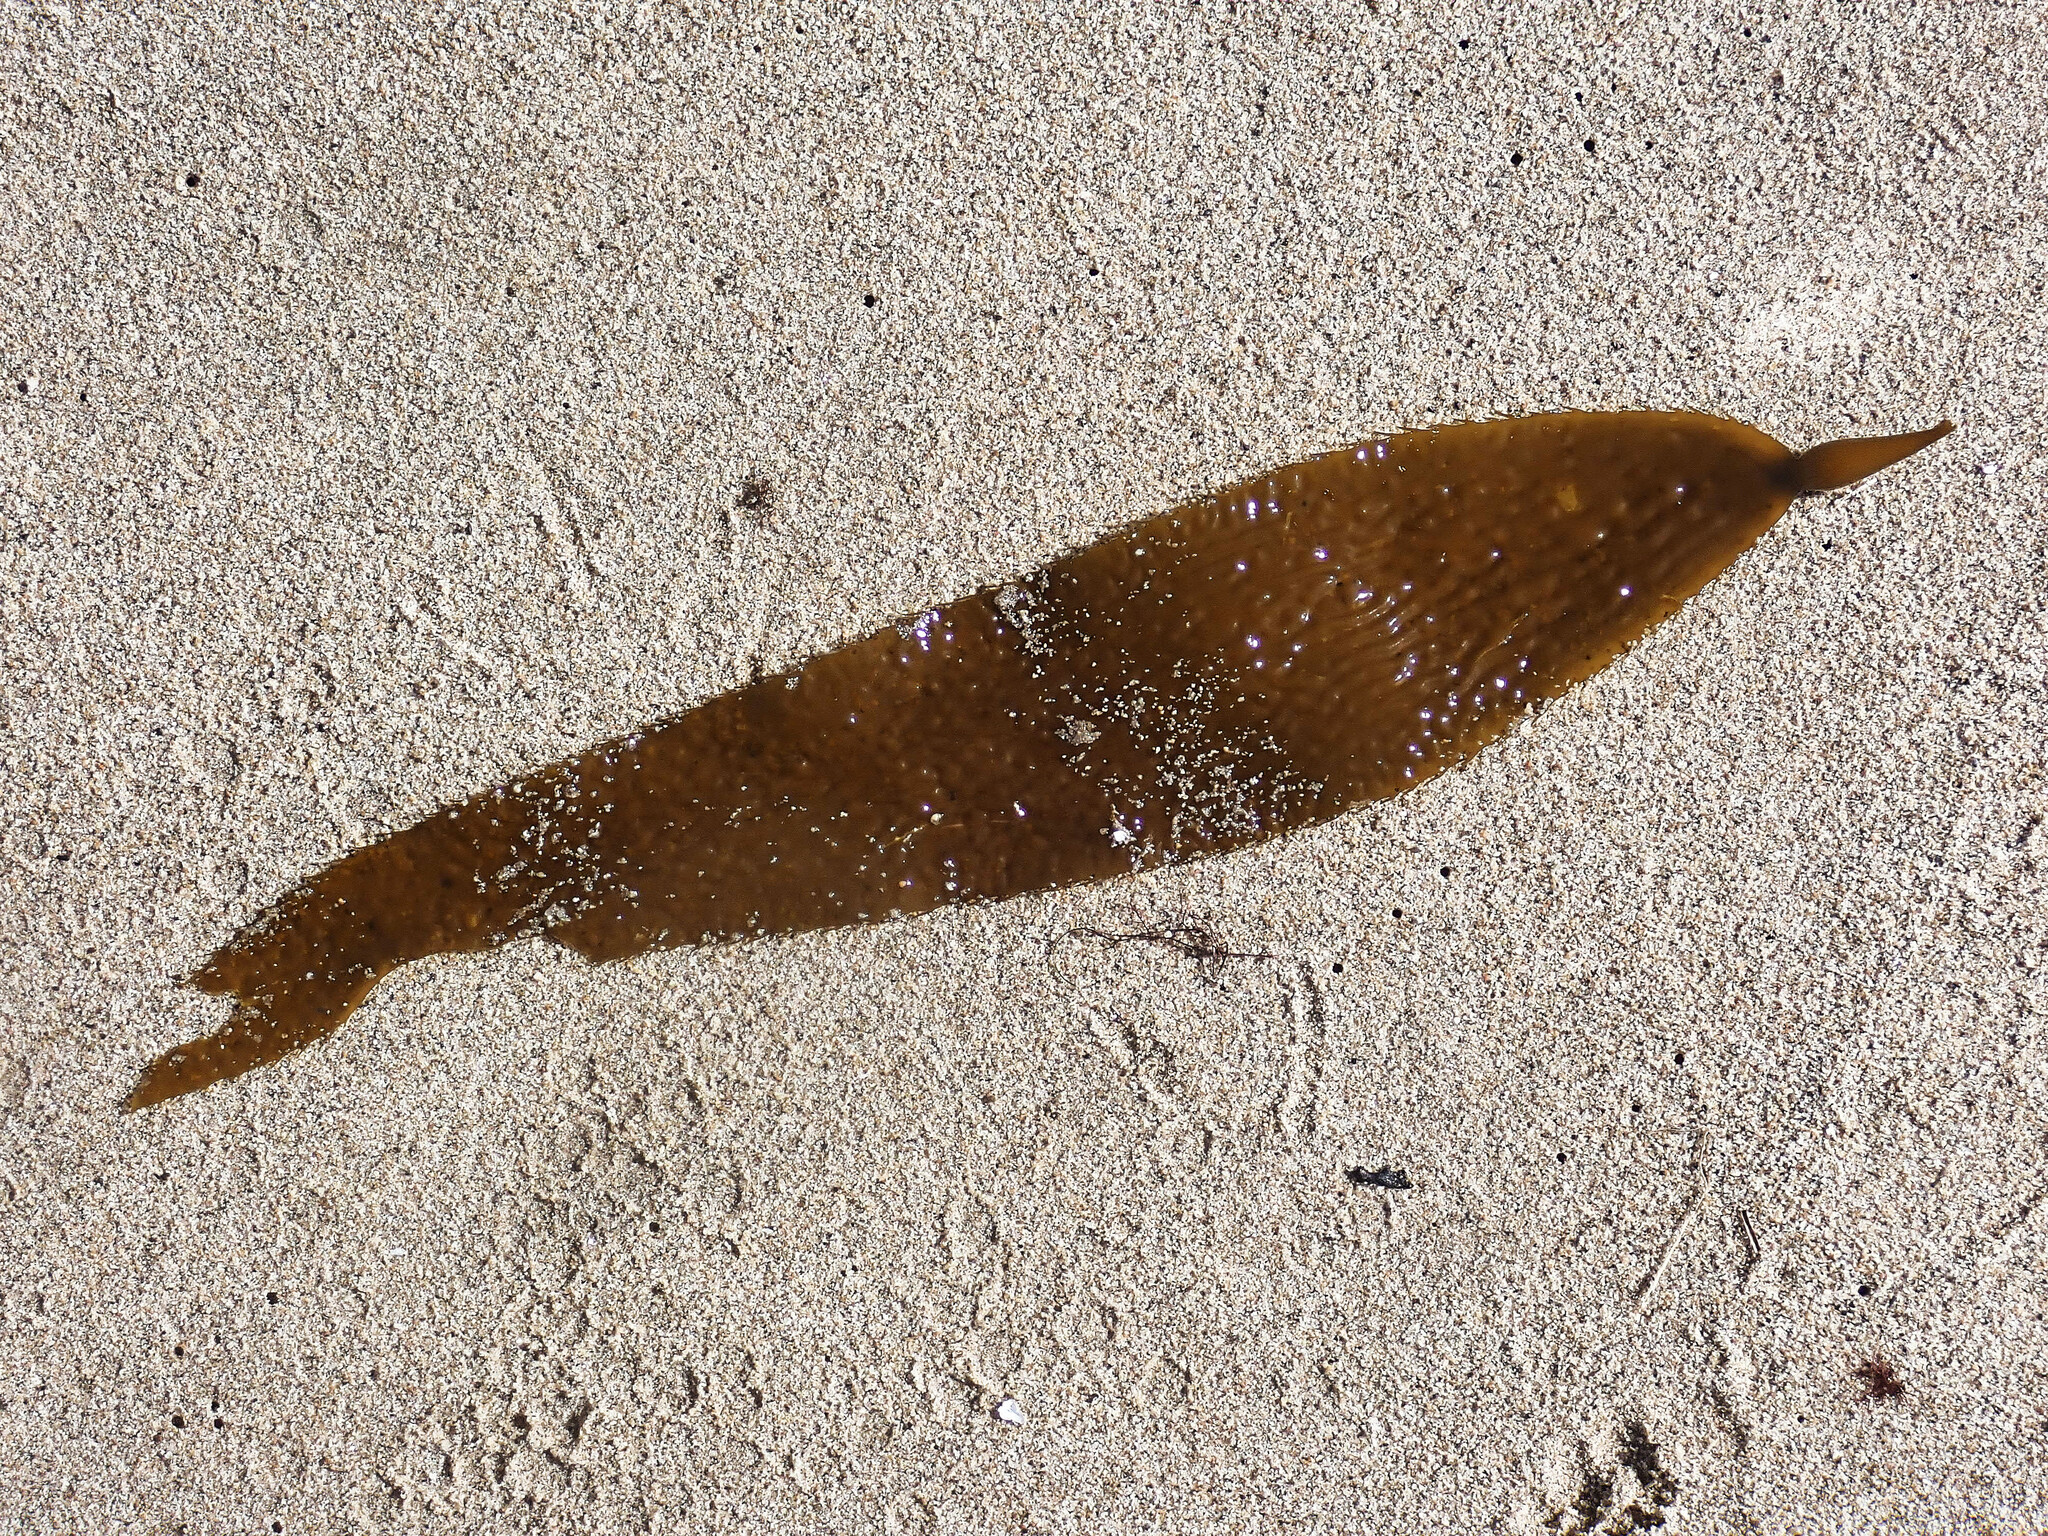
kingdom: Chromista
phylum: Ochrophyta
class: Phaeophyceae
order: Laminariales
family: Laminariaceae
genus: Macrocystis
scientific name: Macrocystis pyrifera
